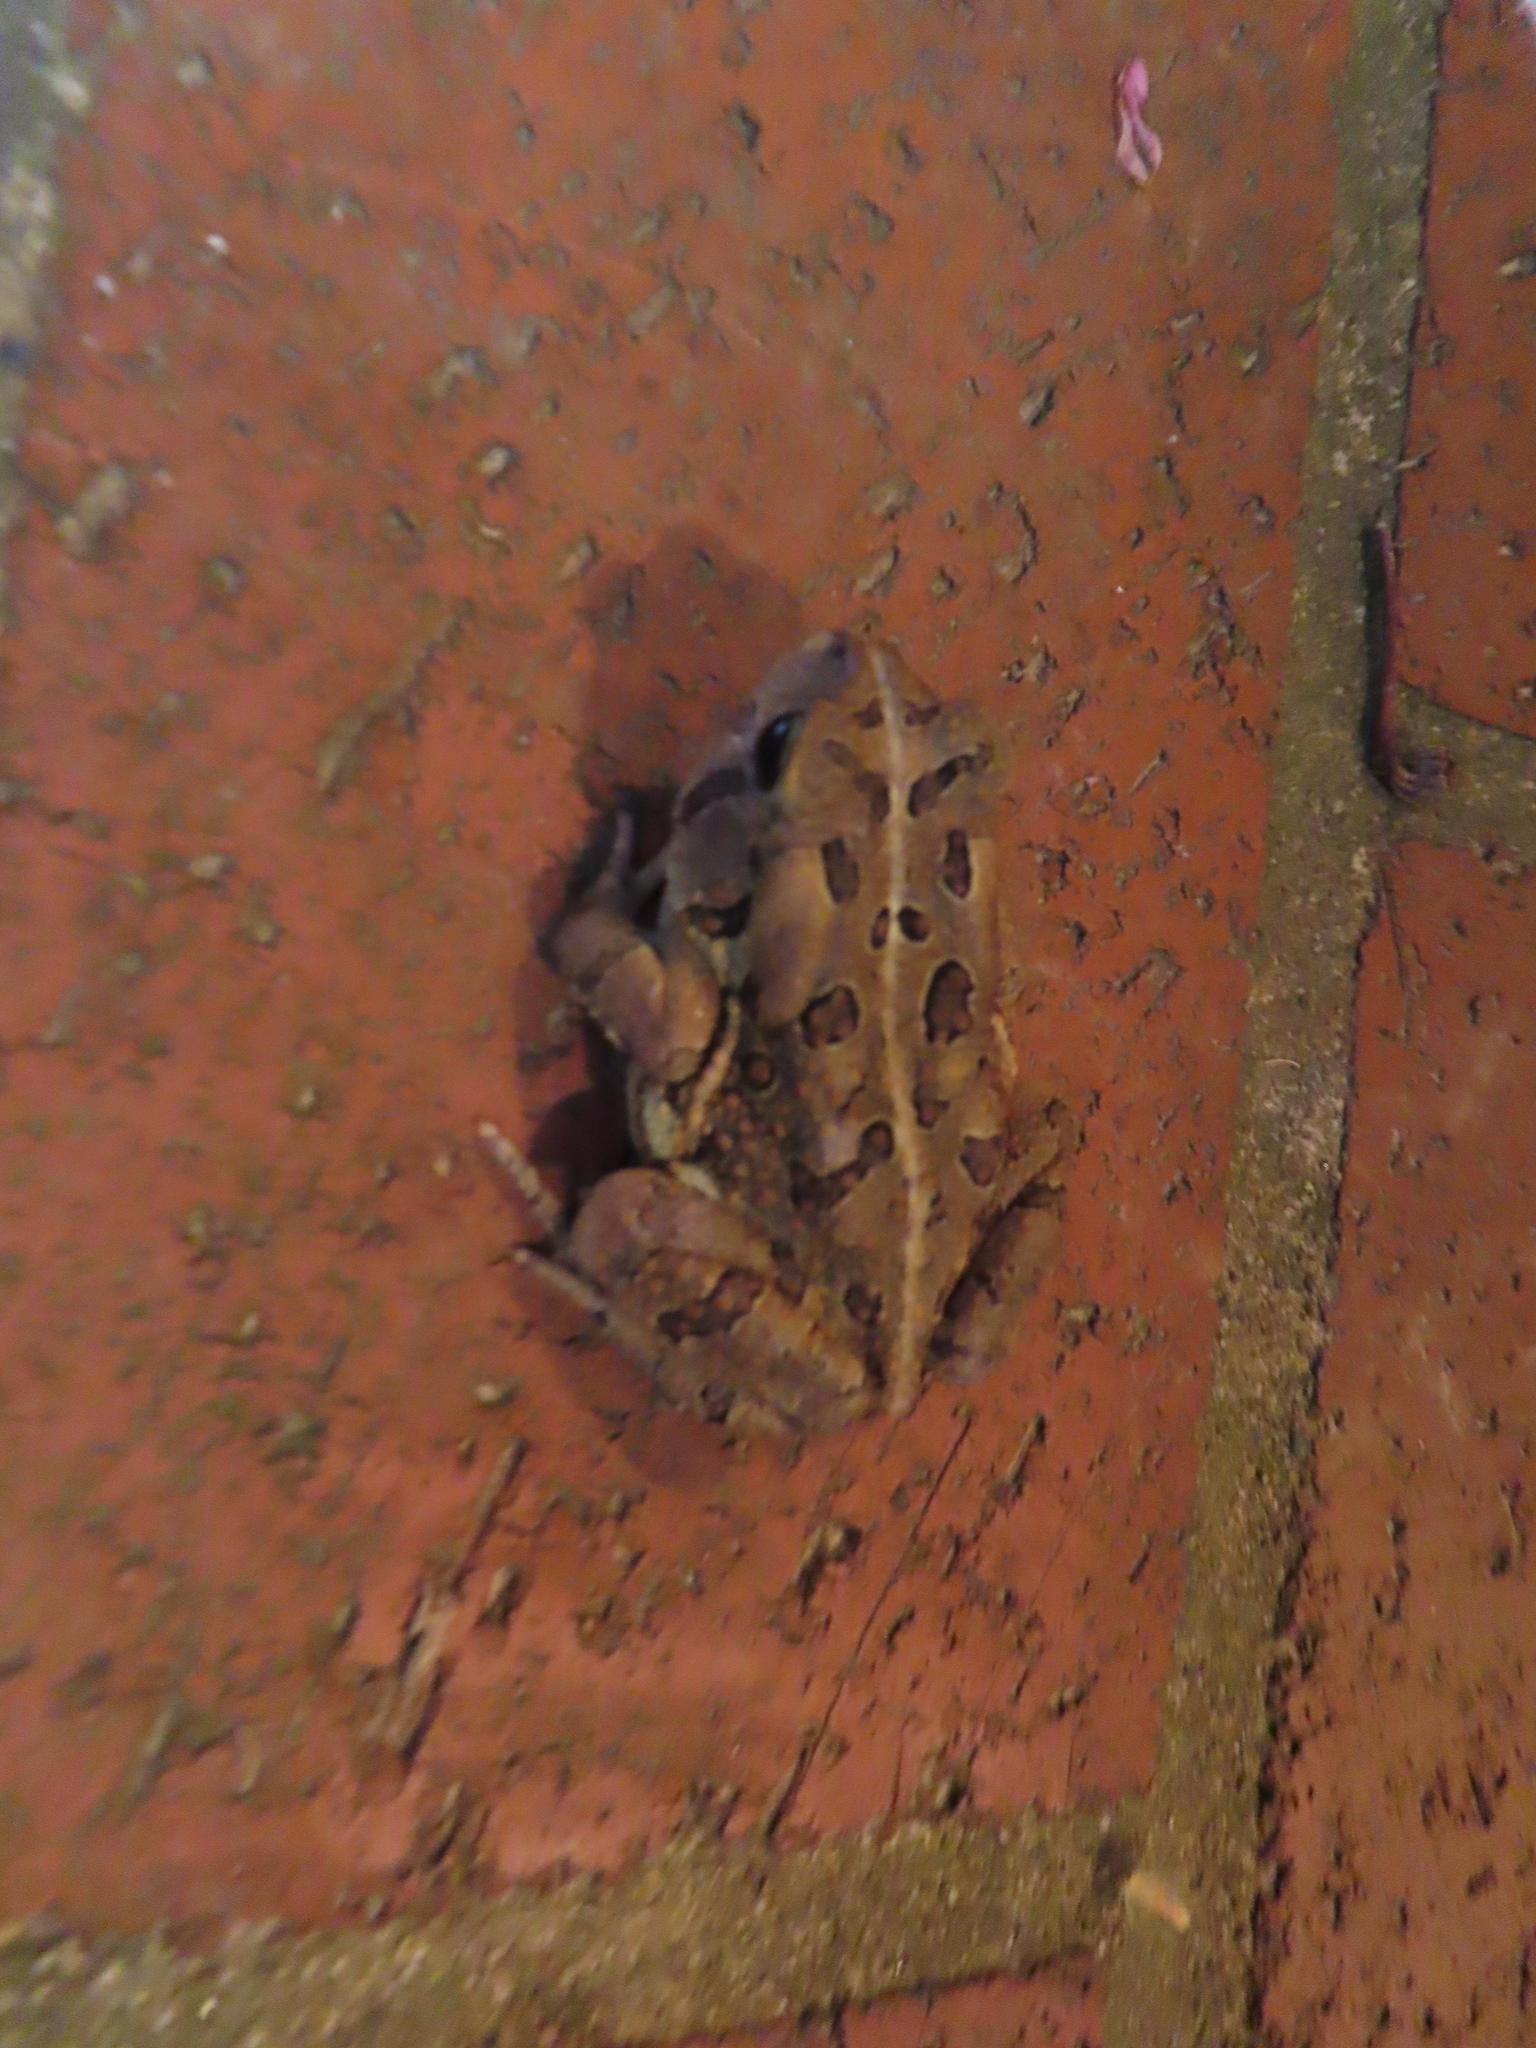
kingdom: Animalia
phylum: Chordata
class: Amphibia
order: Anura
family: Bufonidae
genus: Anaxyrus
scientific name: Anaxyrus fowleri
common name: Fowler's toad
